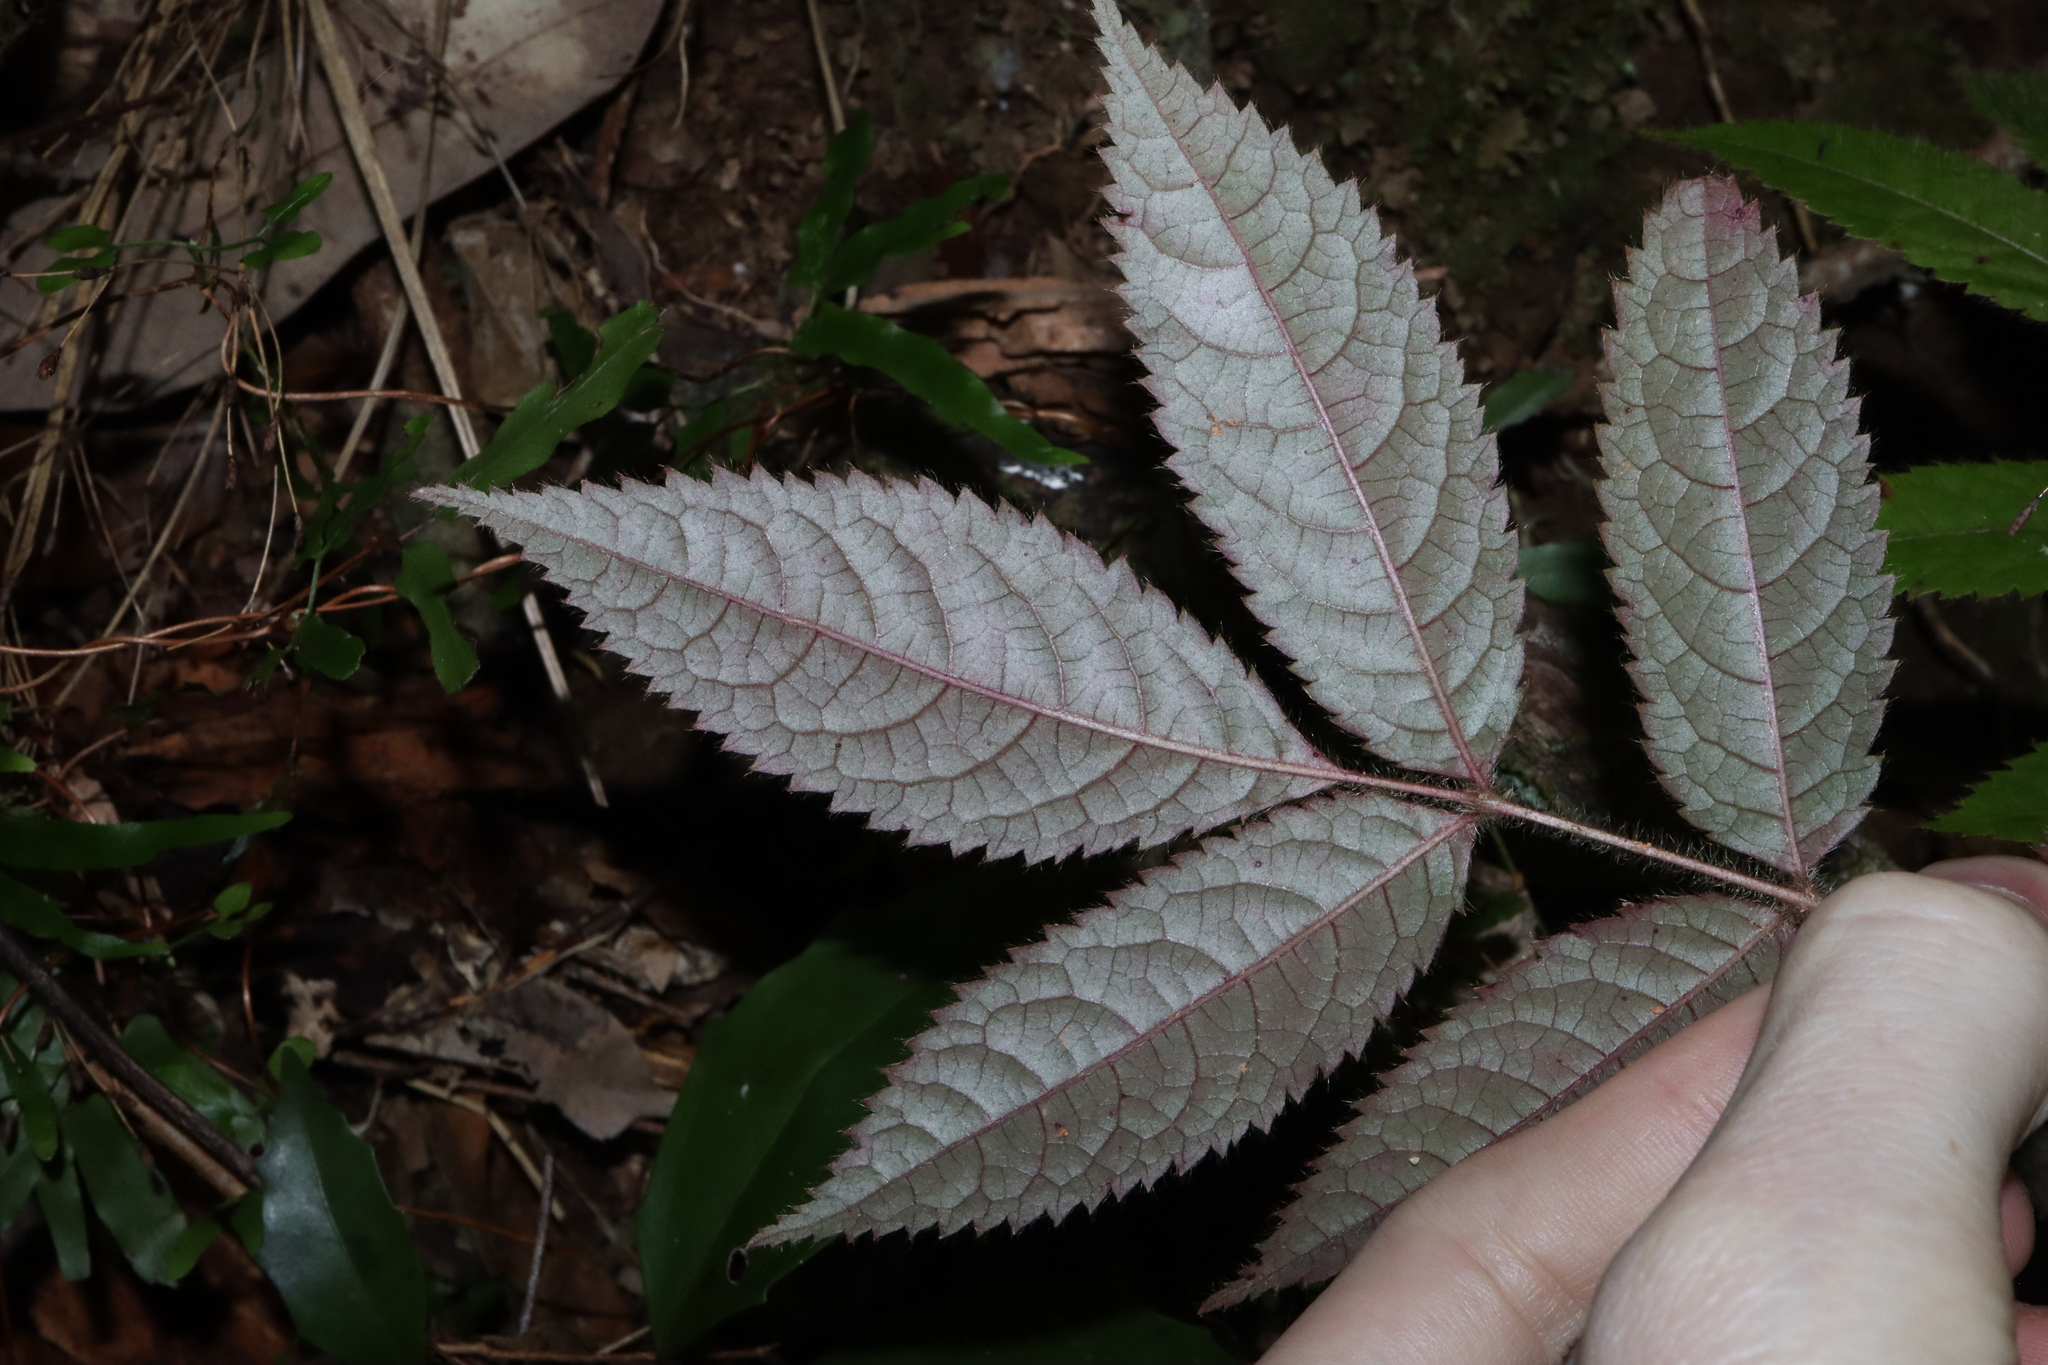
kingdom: Plantae
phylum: Tracheophyta
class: Magnoliopsida
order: Oxalidales
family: Cunoniaceae
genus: Gillbeea
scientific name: Gillbeea adenopetala
